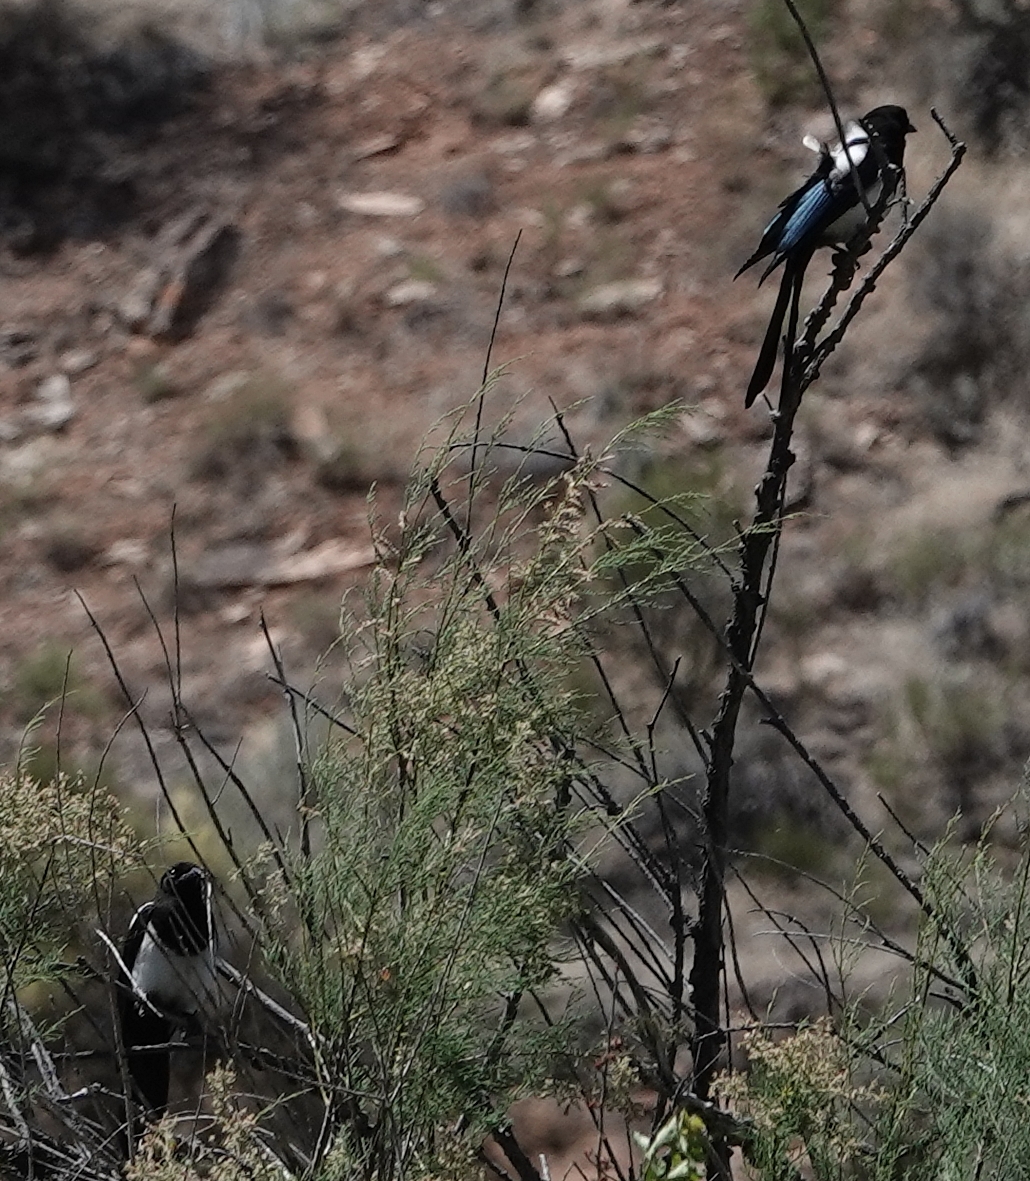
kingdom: Animalia
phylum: Chordata
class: Aves
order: Passeriformes
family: Corvidae
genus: Pica
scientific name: Pica hudsonia
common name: Black-billed magpie
